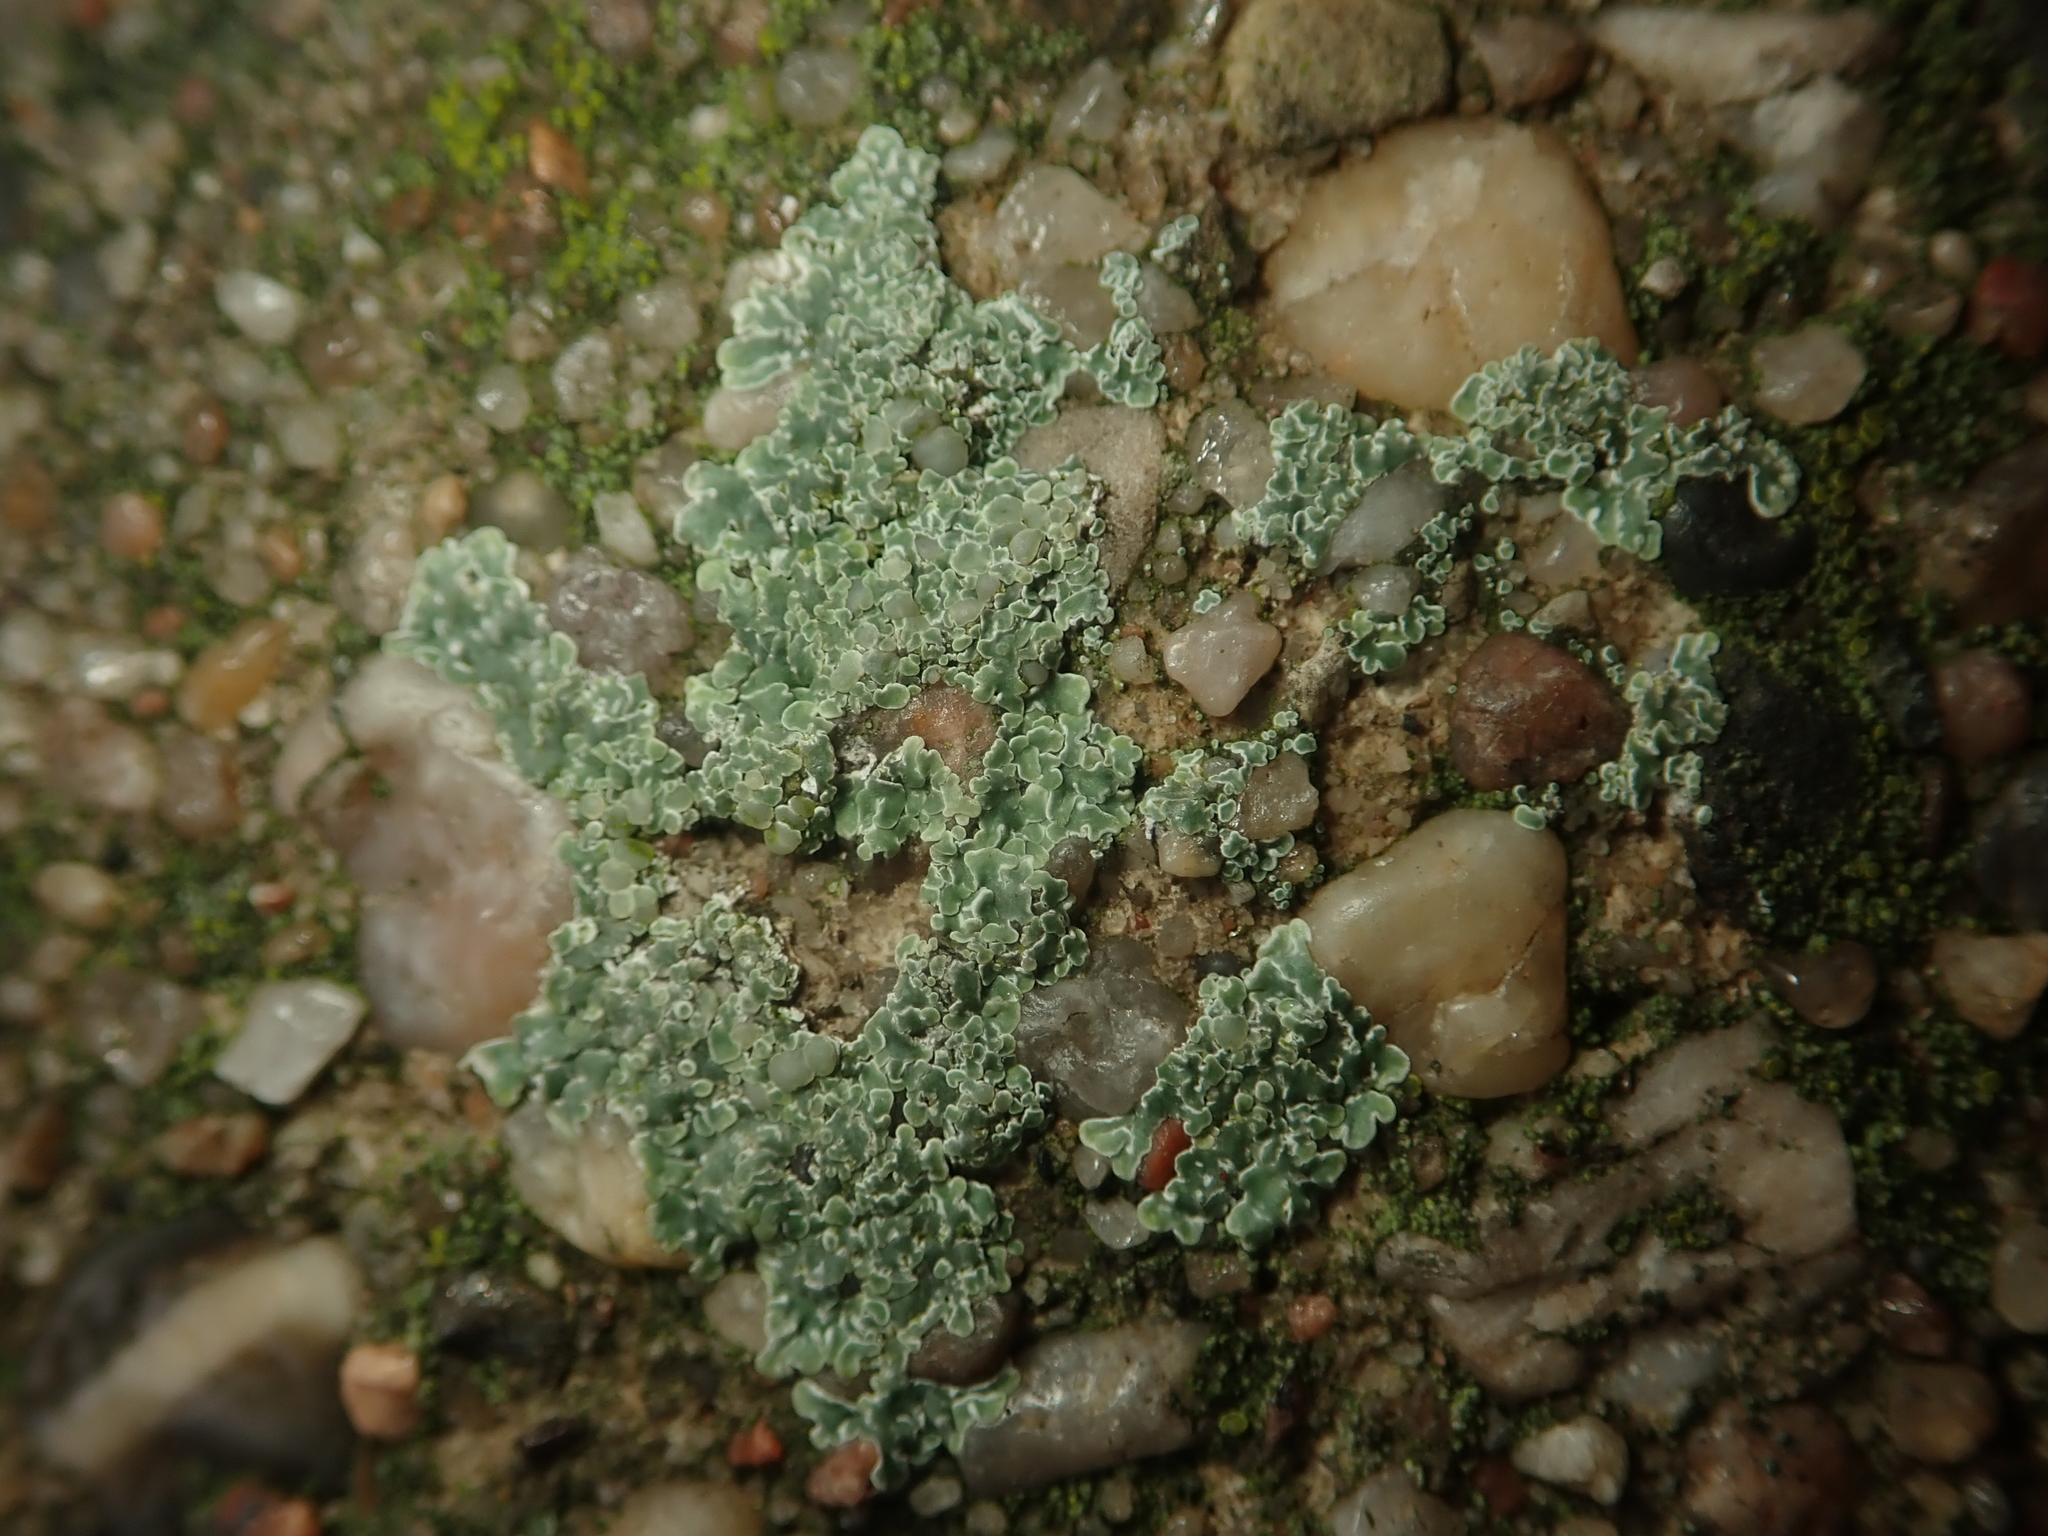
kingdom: Fungi
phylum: Ascomycota
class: Lecanoromycetes
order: Lecanorales
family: Lecanoraceae
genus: Protoparmeliopsis
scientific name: Protoparmeliopsis muralis
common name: Stonewall rim lichen
